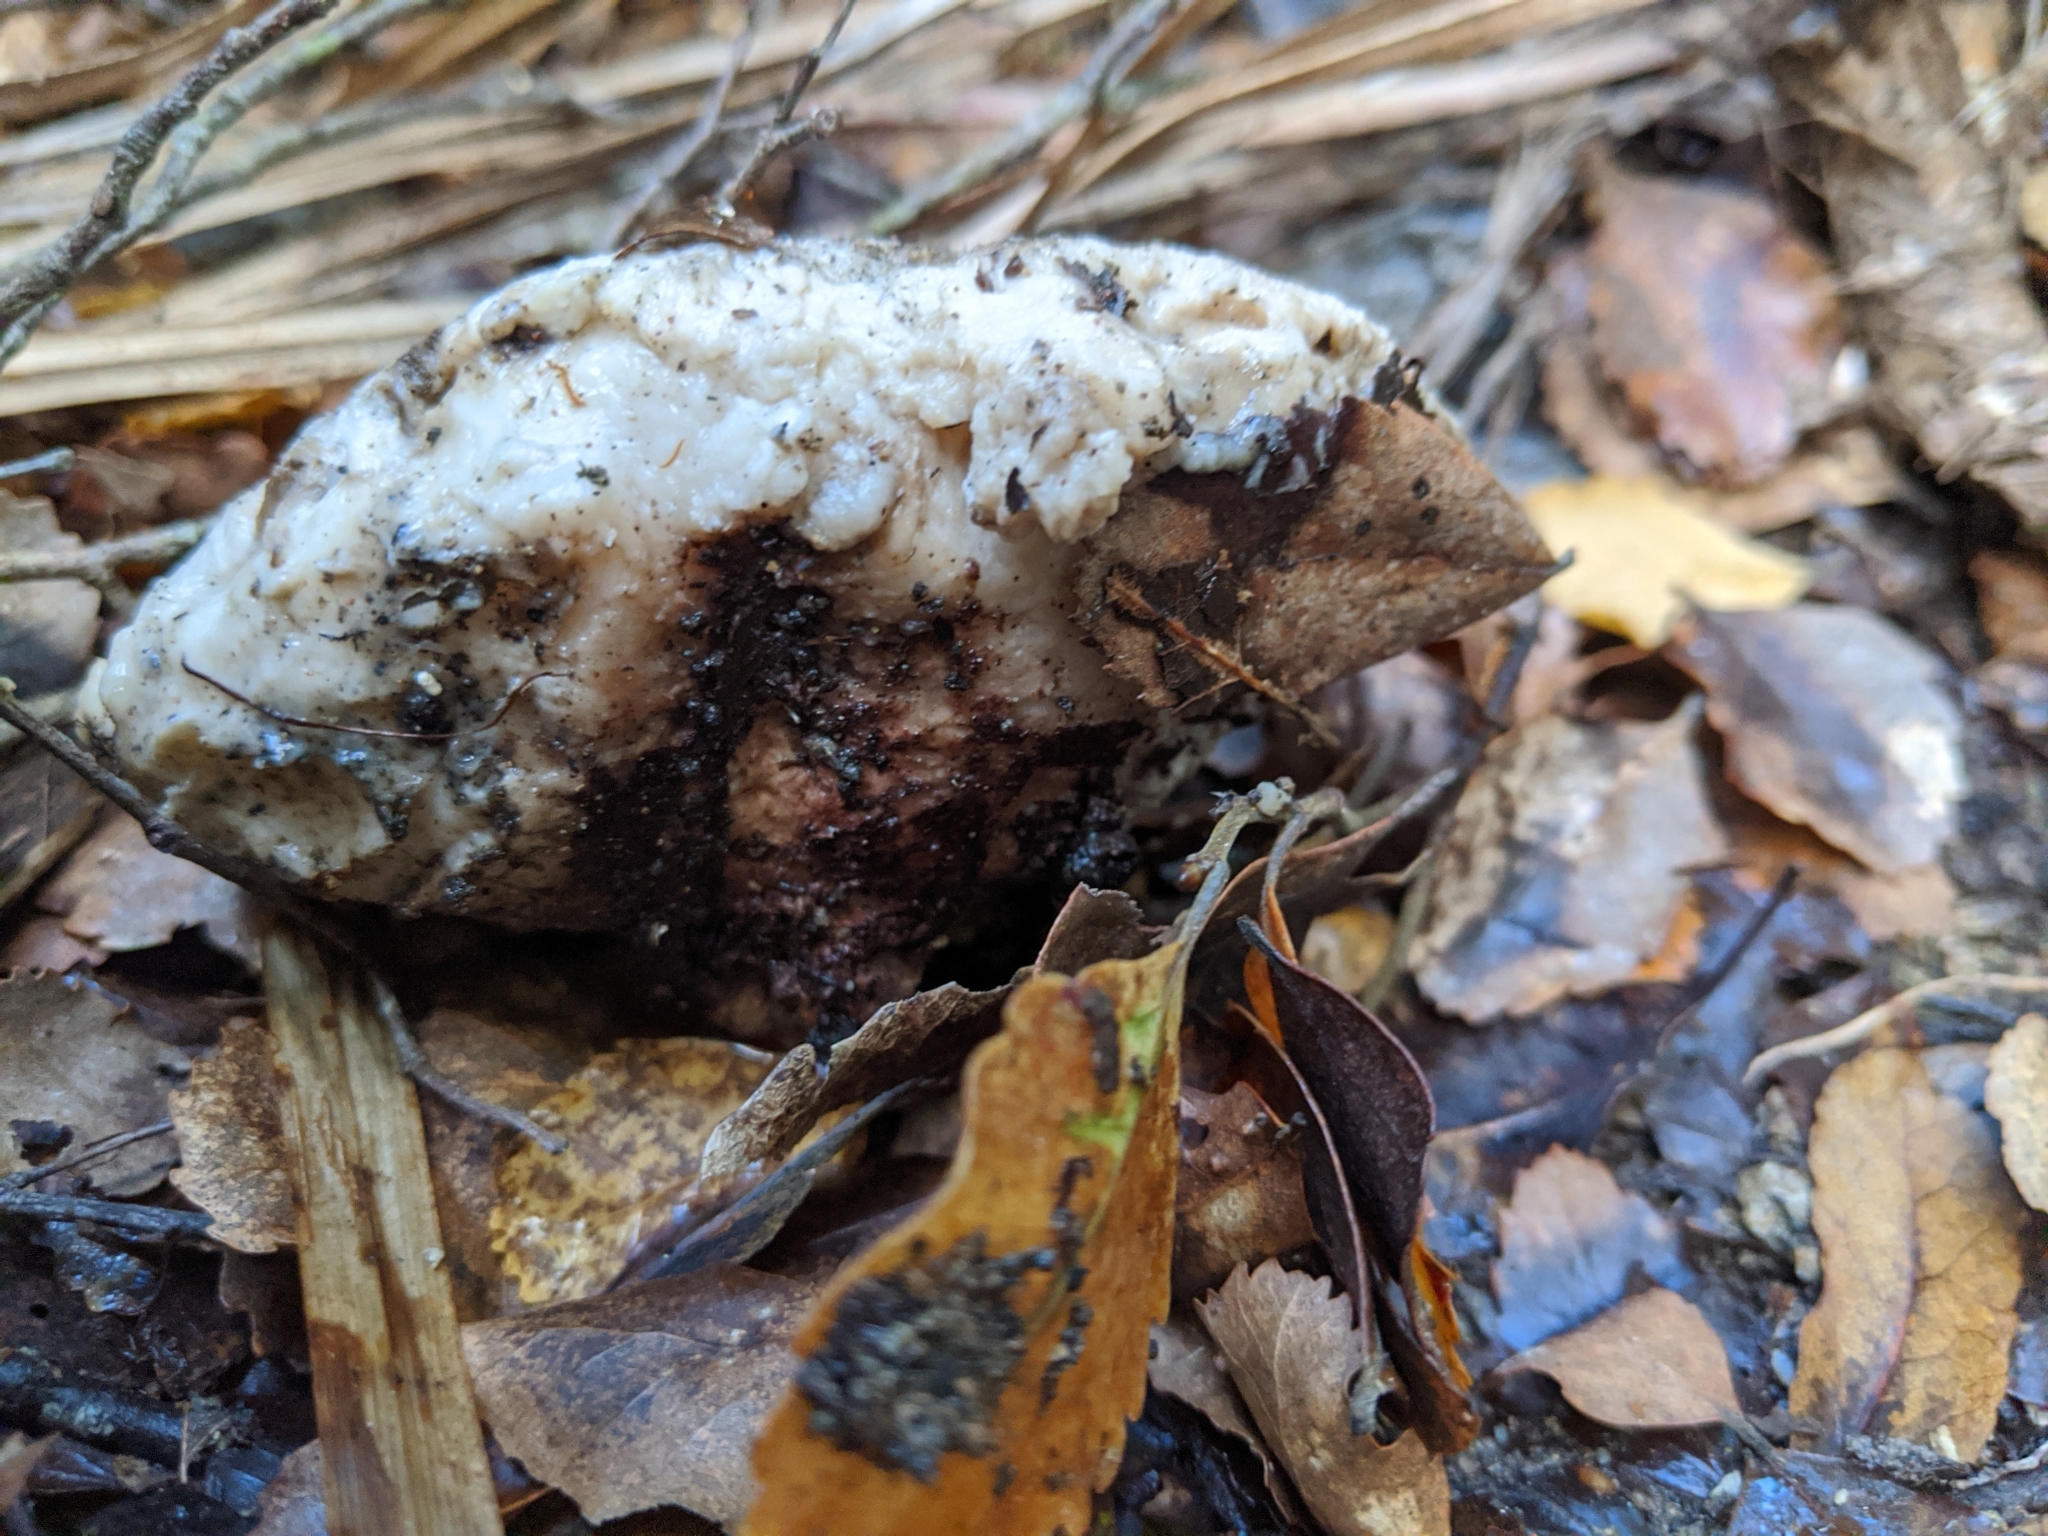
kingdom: Fungi
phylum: Basidiomycota
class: Agaricomycetes
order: Polyporales
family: Laetiporaceae
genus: Laetiporus
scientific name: Laetiporus portentosus
